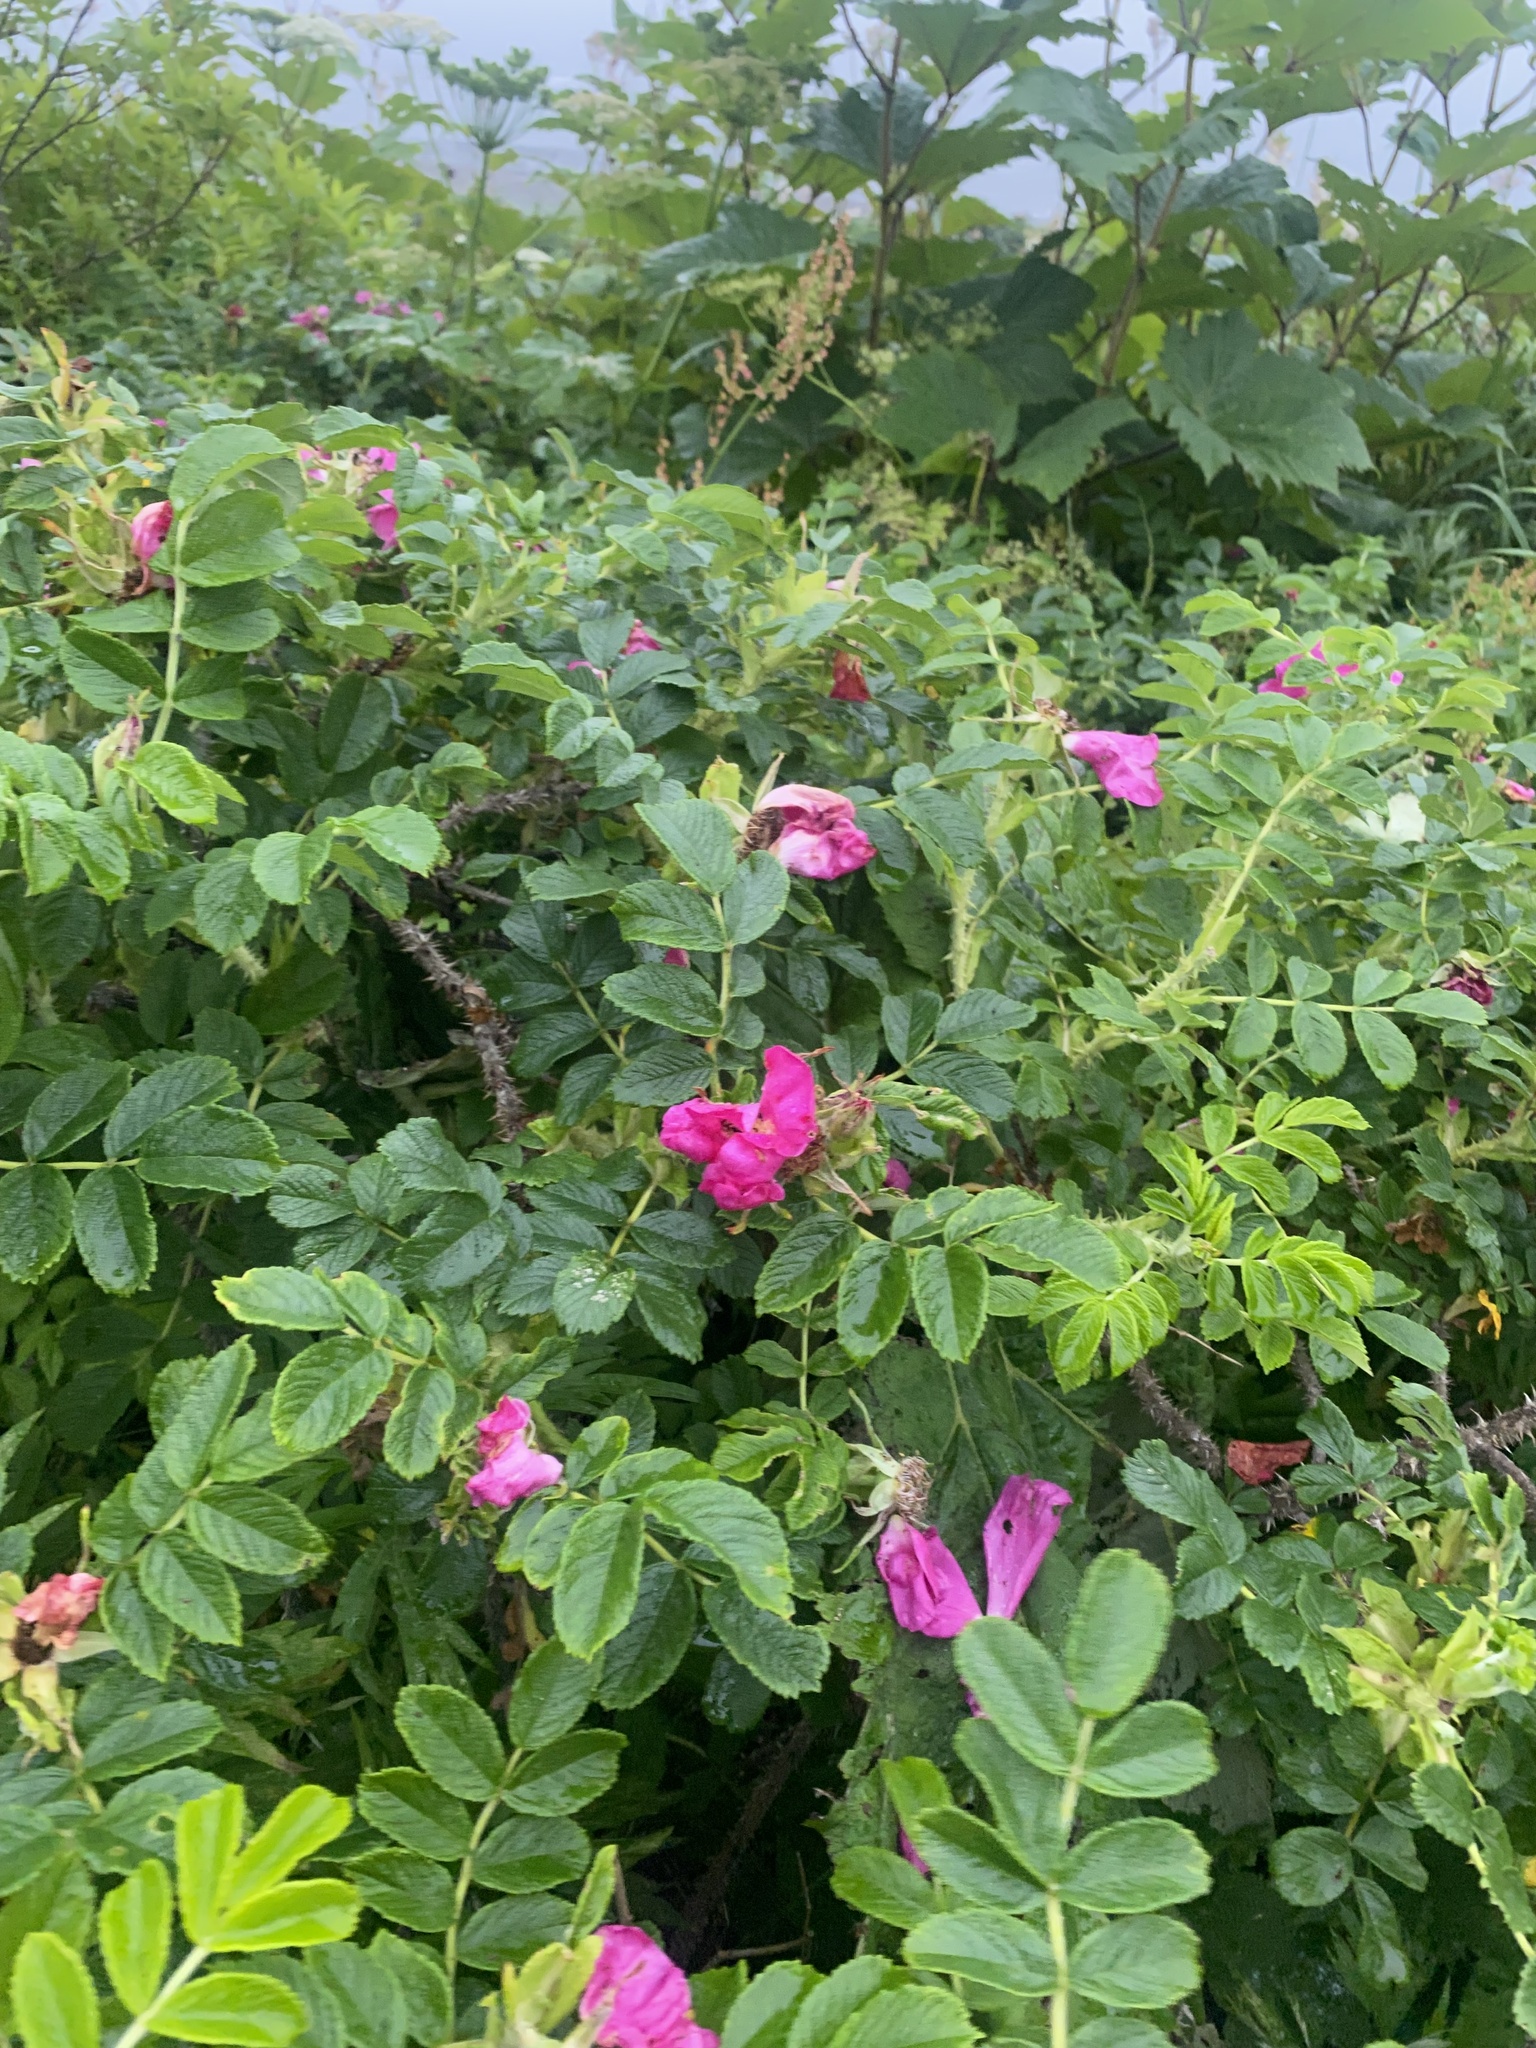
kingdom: Plantae
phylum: Tracheophyta
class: Magnoliopsida
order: Rosales
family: Rosaceae
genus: Rosa
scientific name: Rosa rugosa
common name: Japanese rose
